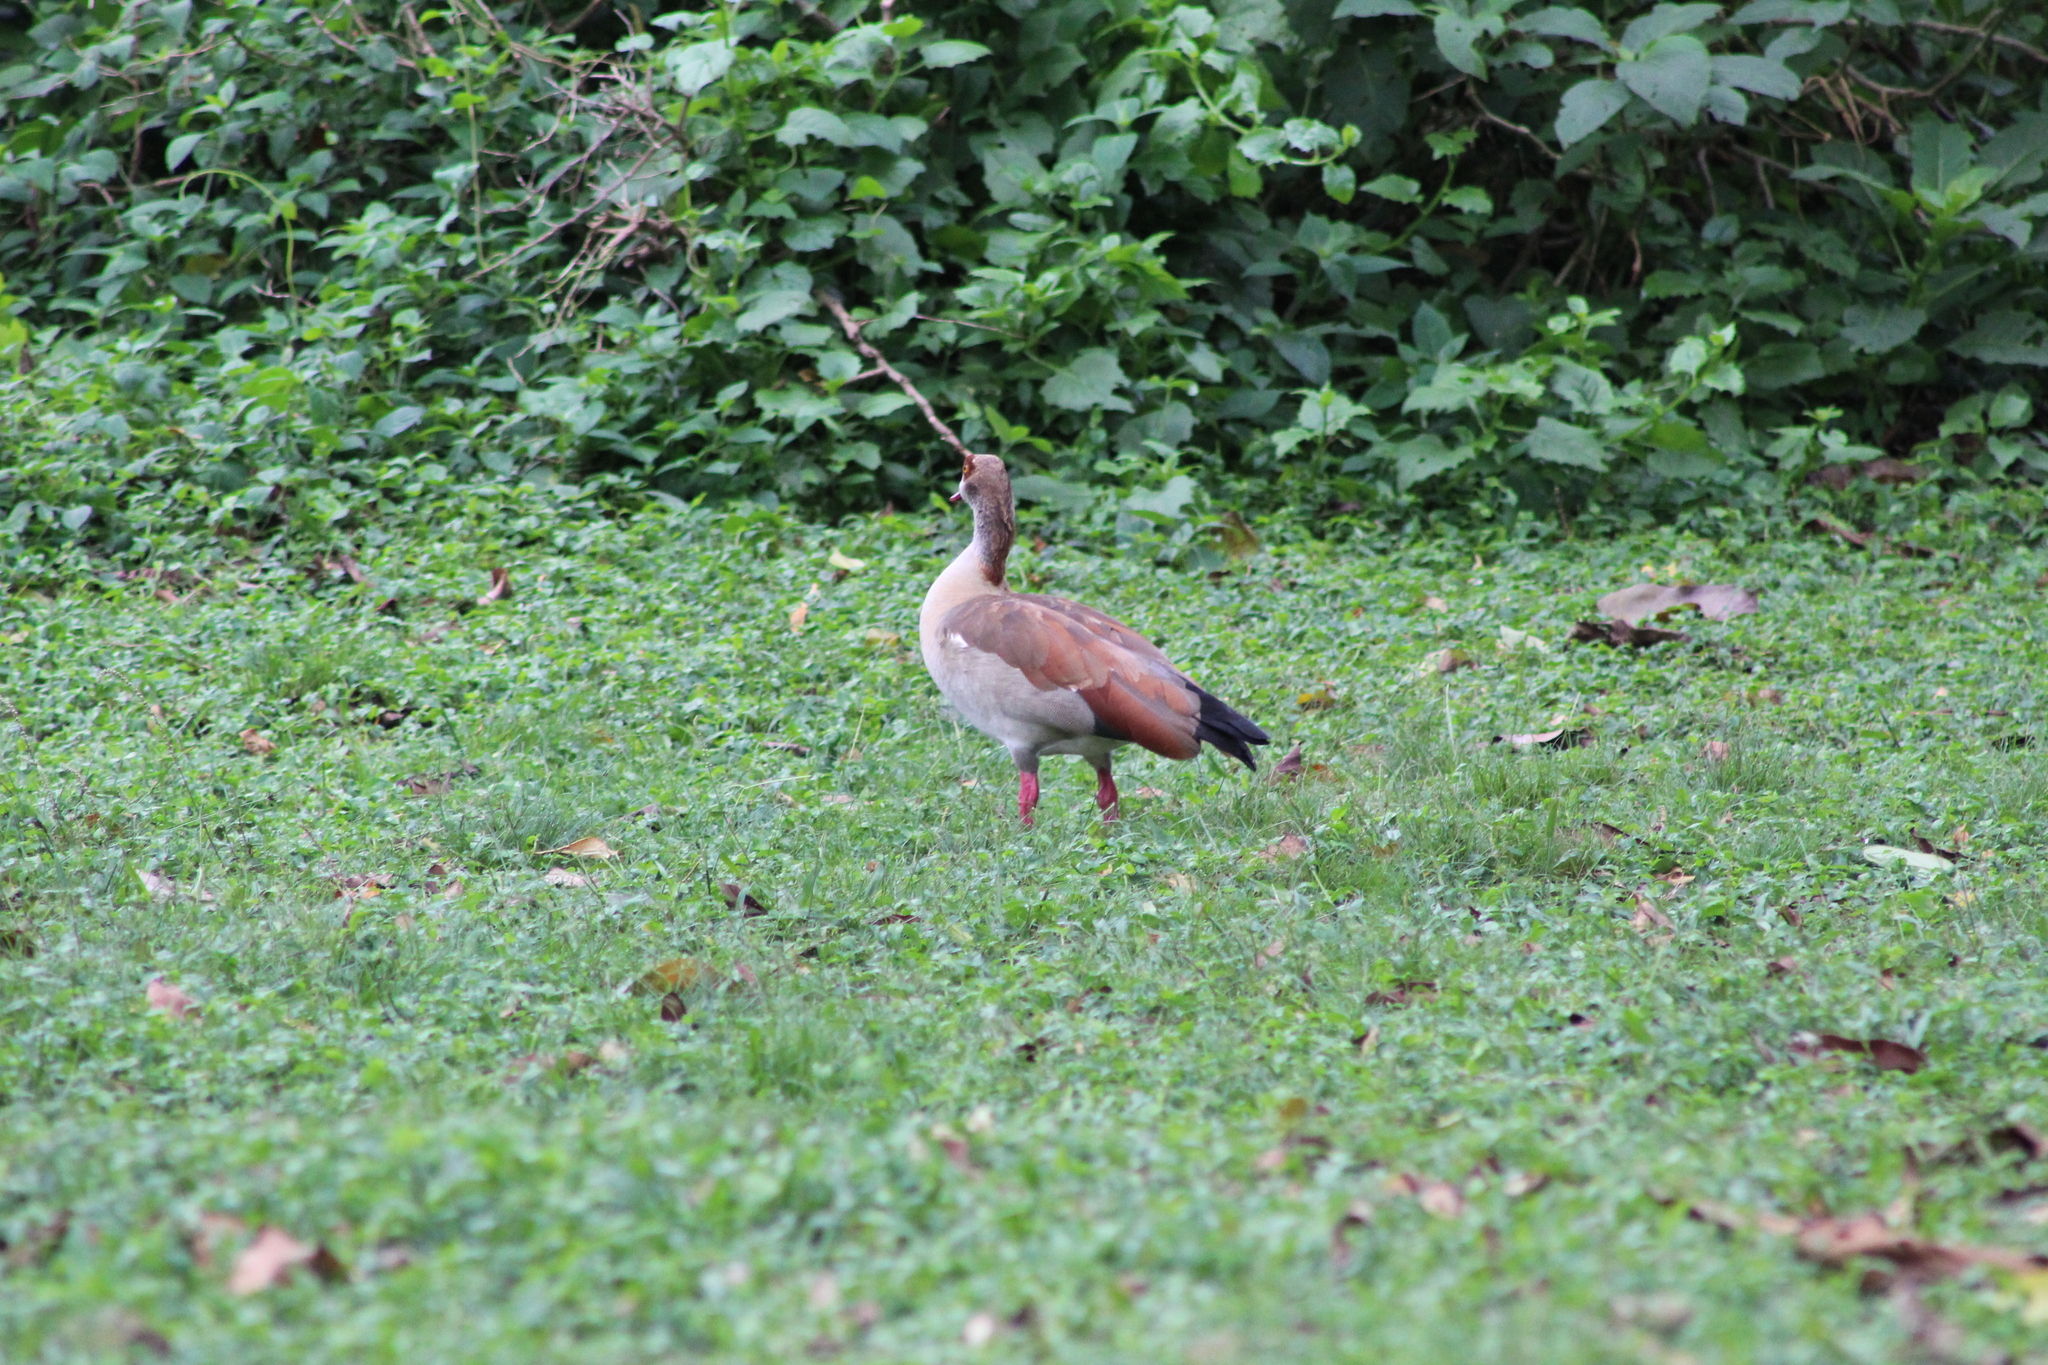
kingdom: Animalia
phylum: Chordata
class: Aves
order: Anseriformes
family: Anatidae
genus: Alopochen
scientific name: Alopochen aegyptiaca
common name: Egyptian goose
